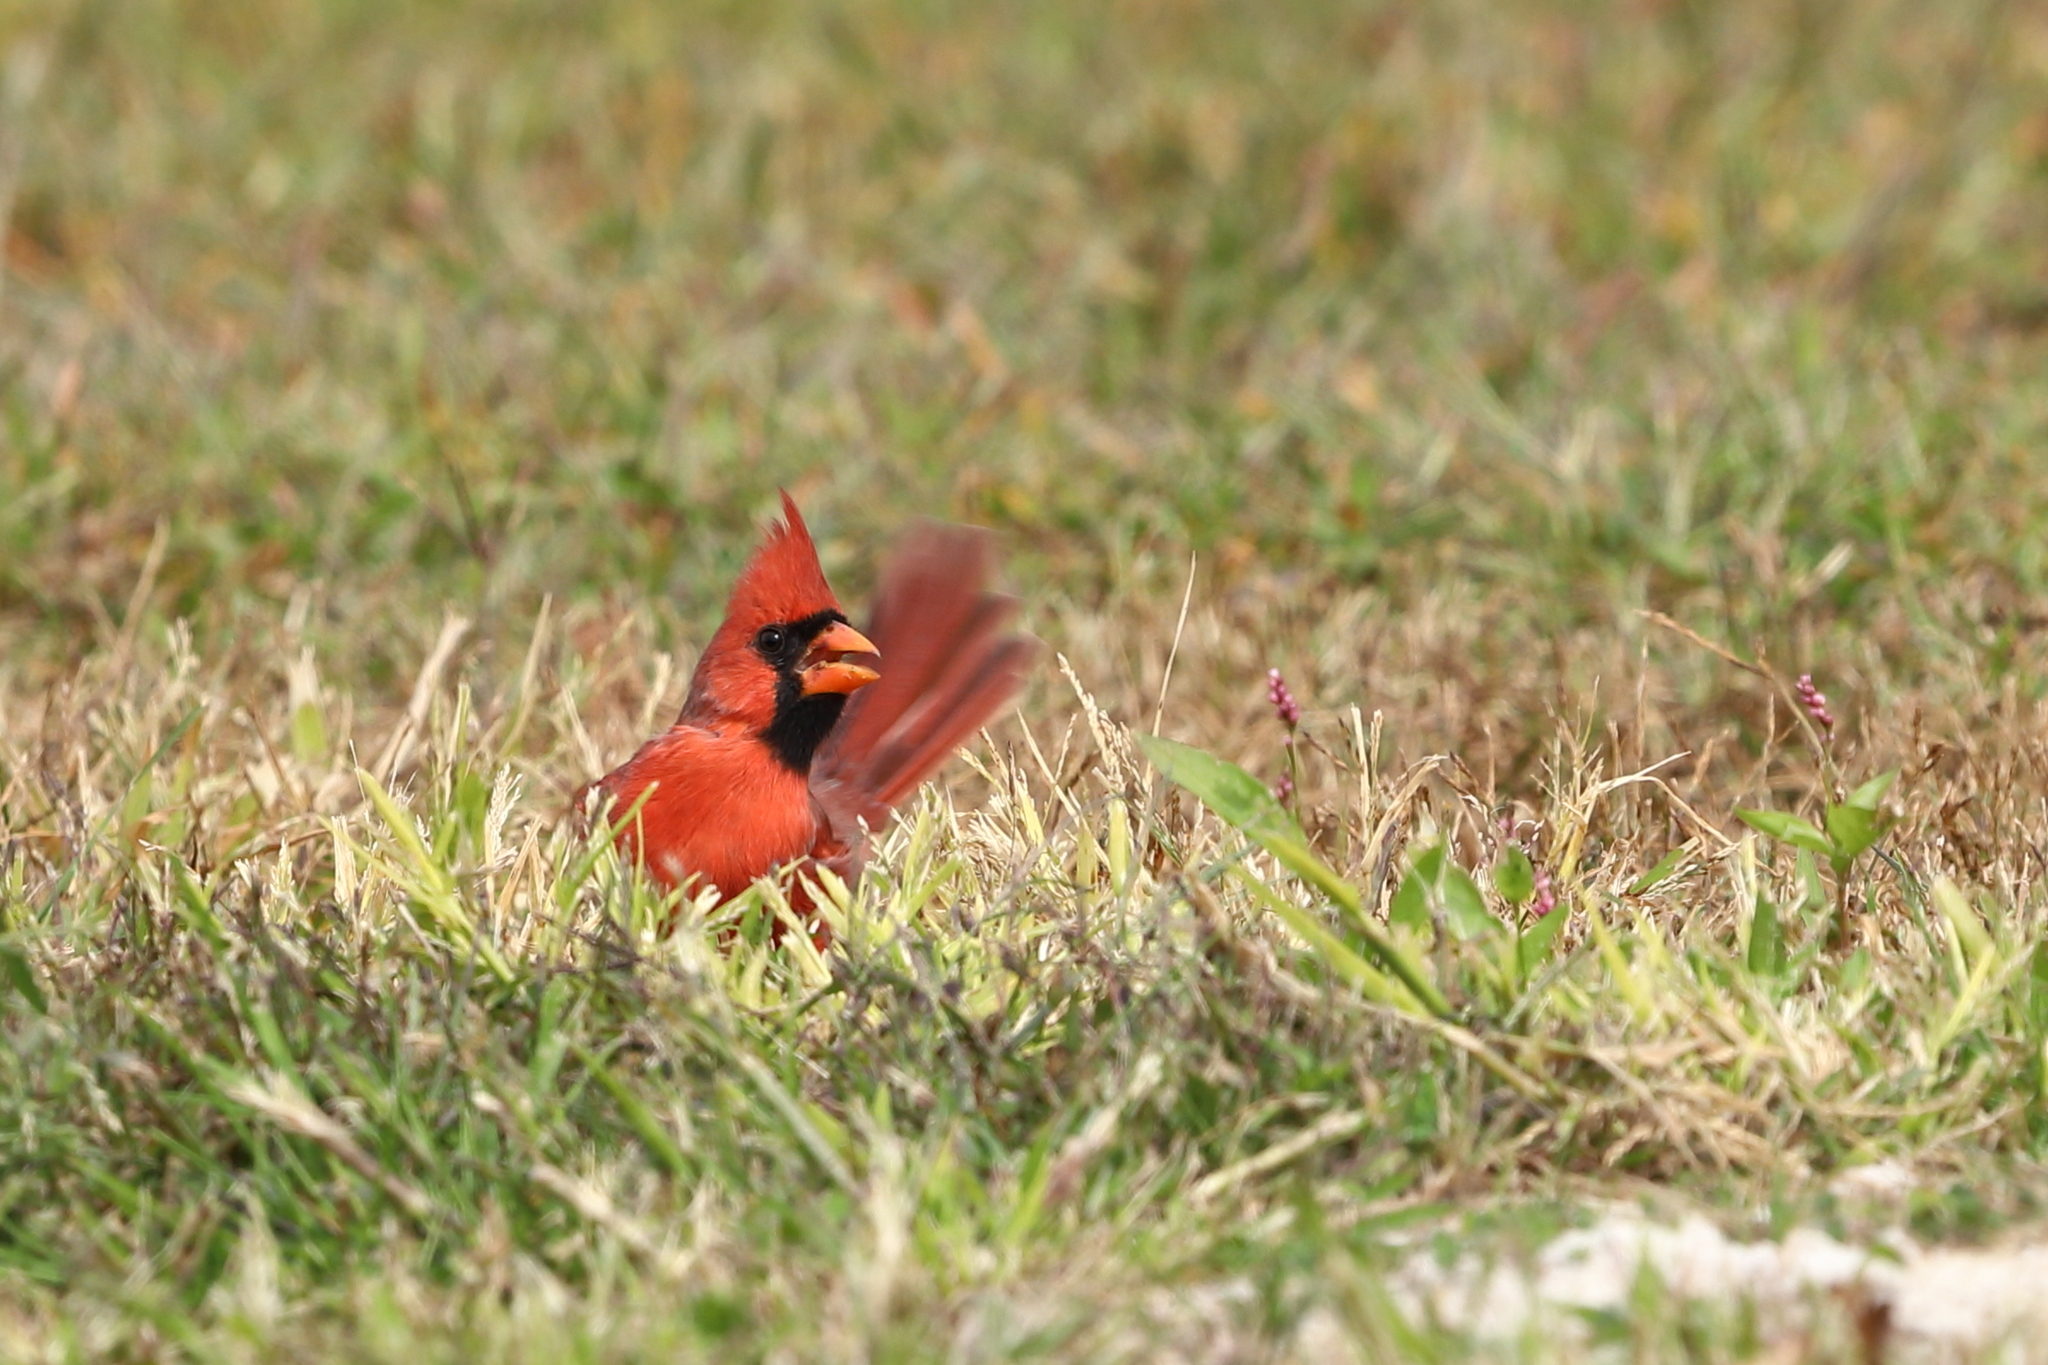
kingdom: Animalia
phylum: Chordata
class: Aves
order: Passeriformes
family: Cardinalidae
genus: Cardinalis
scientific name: Cardinalis cardinalis
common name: Northern cardinal
